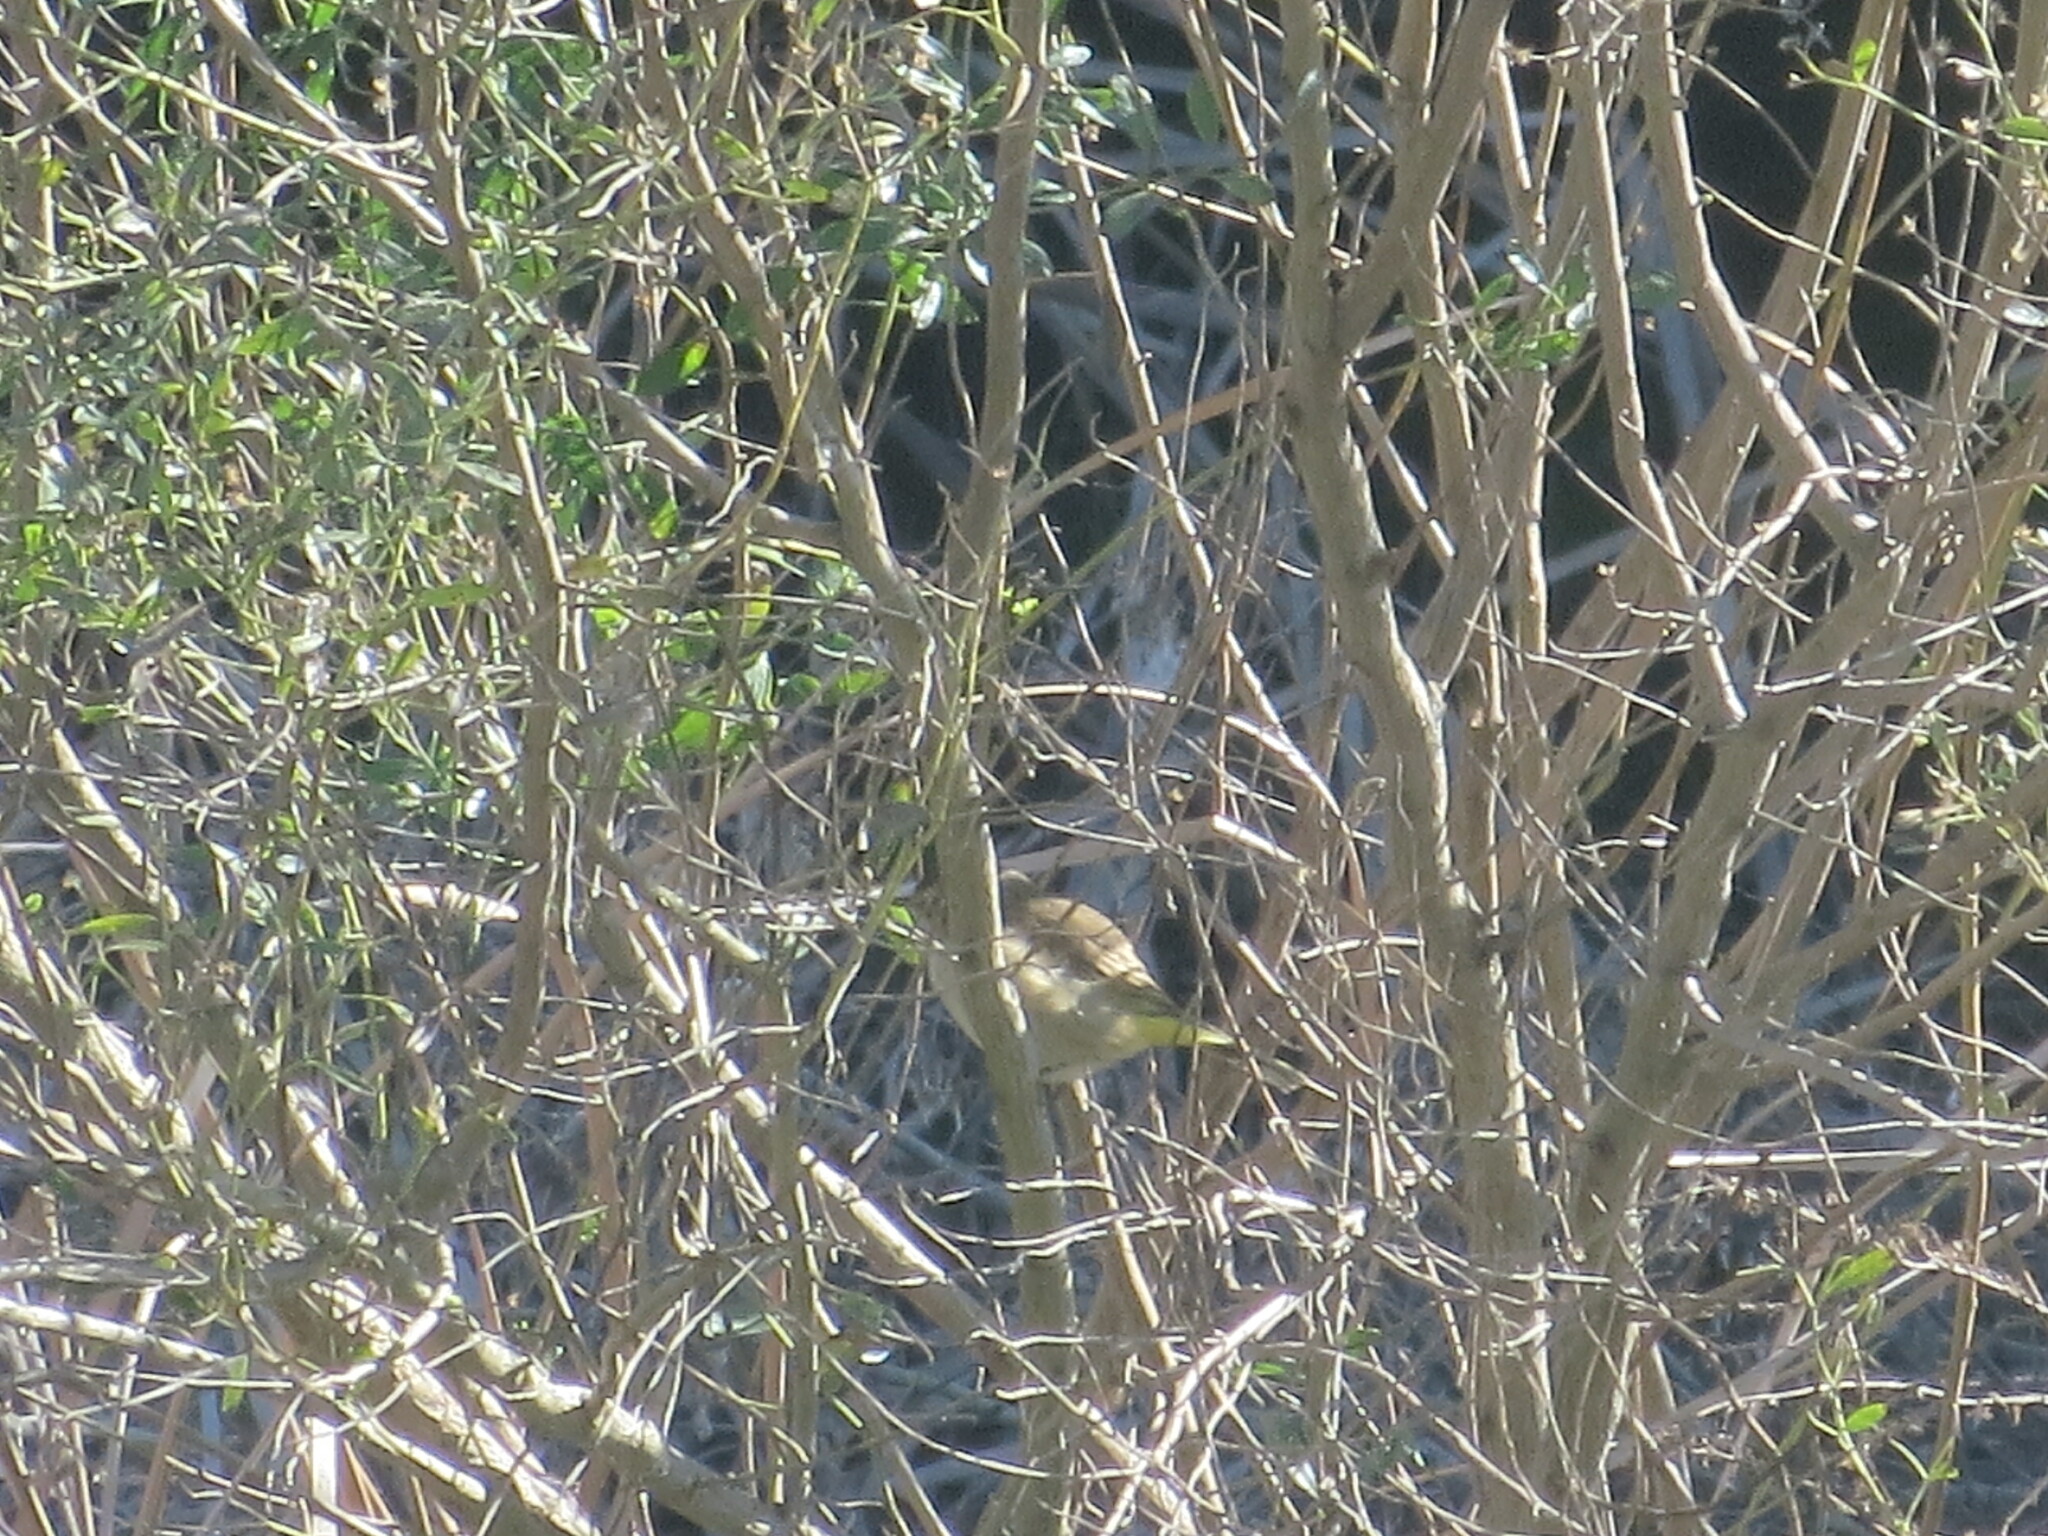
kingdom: Animalia
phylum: Chordata
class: Aves
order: Passeriformes
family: Parulidae
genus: Setophaga
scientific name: Setophaga palmarum
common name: Palm warbler
